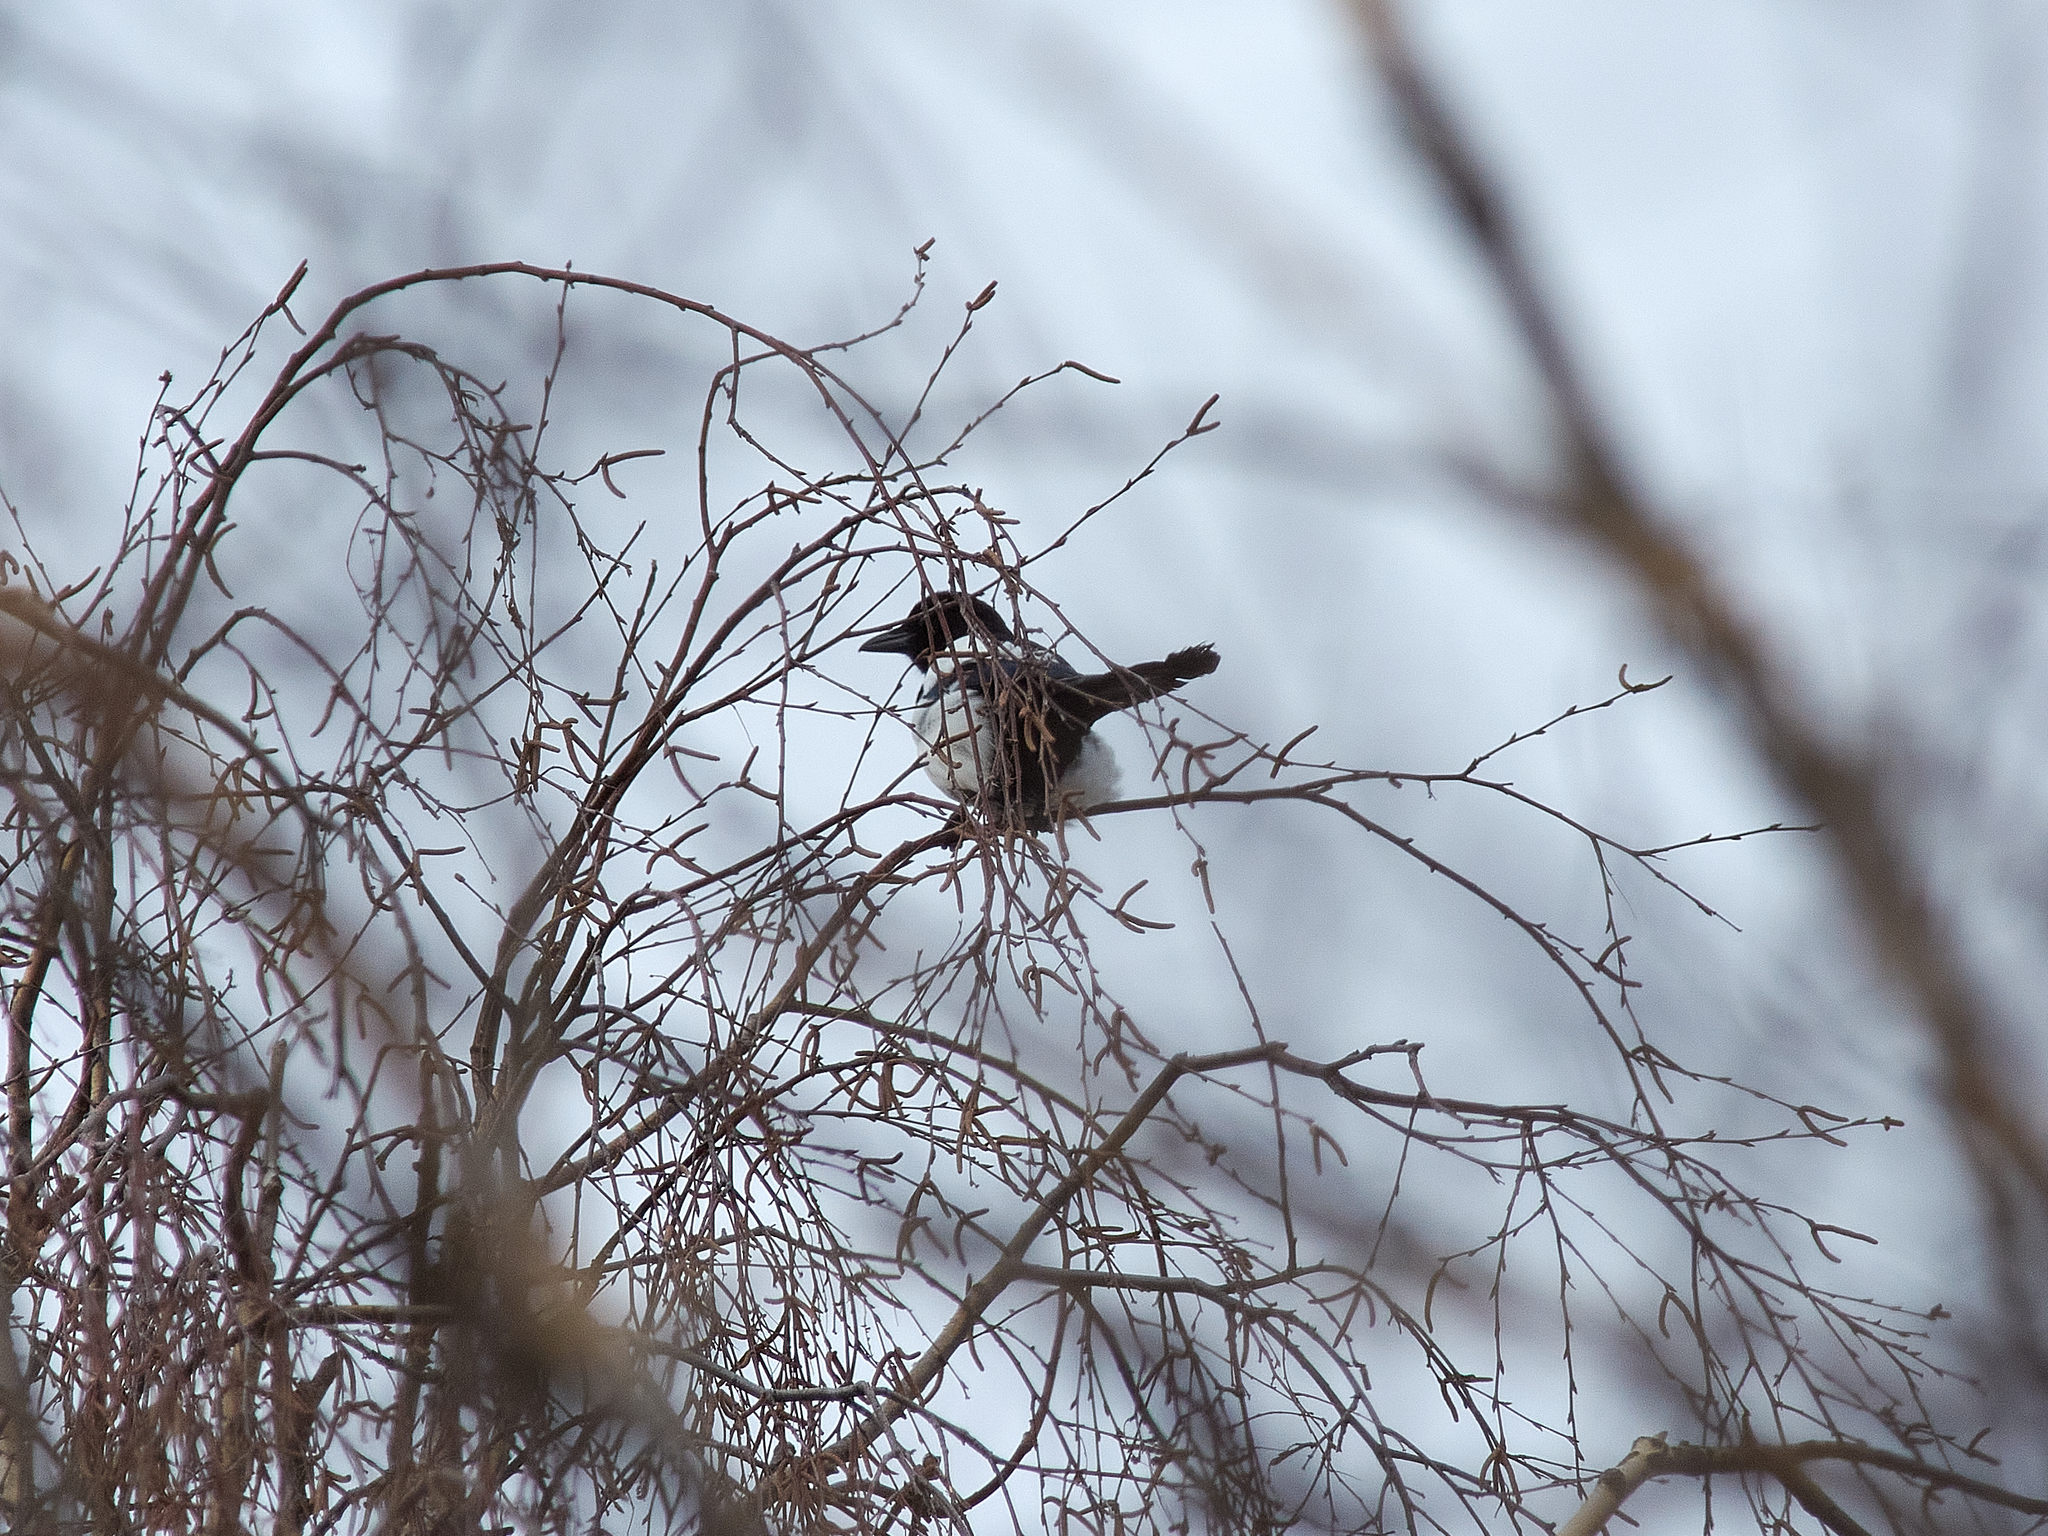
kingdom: Animalia
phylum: Chordata
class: Aves
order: Passeriformes
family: Corvidae
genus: Pica
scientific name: Pica pica
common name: Eurasian magpie
